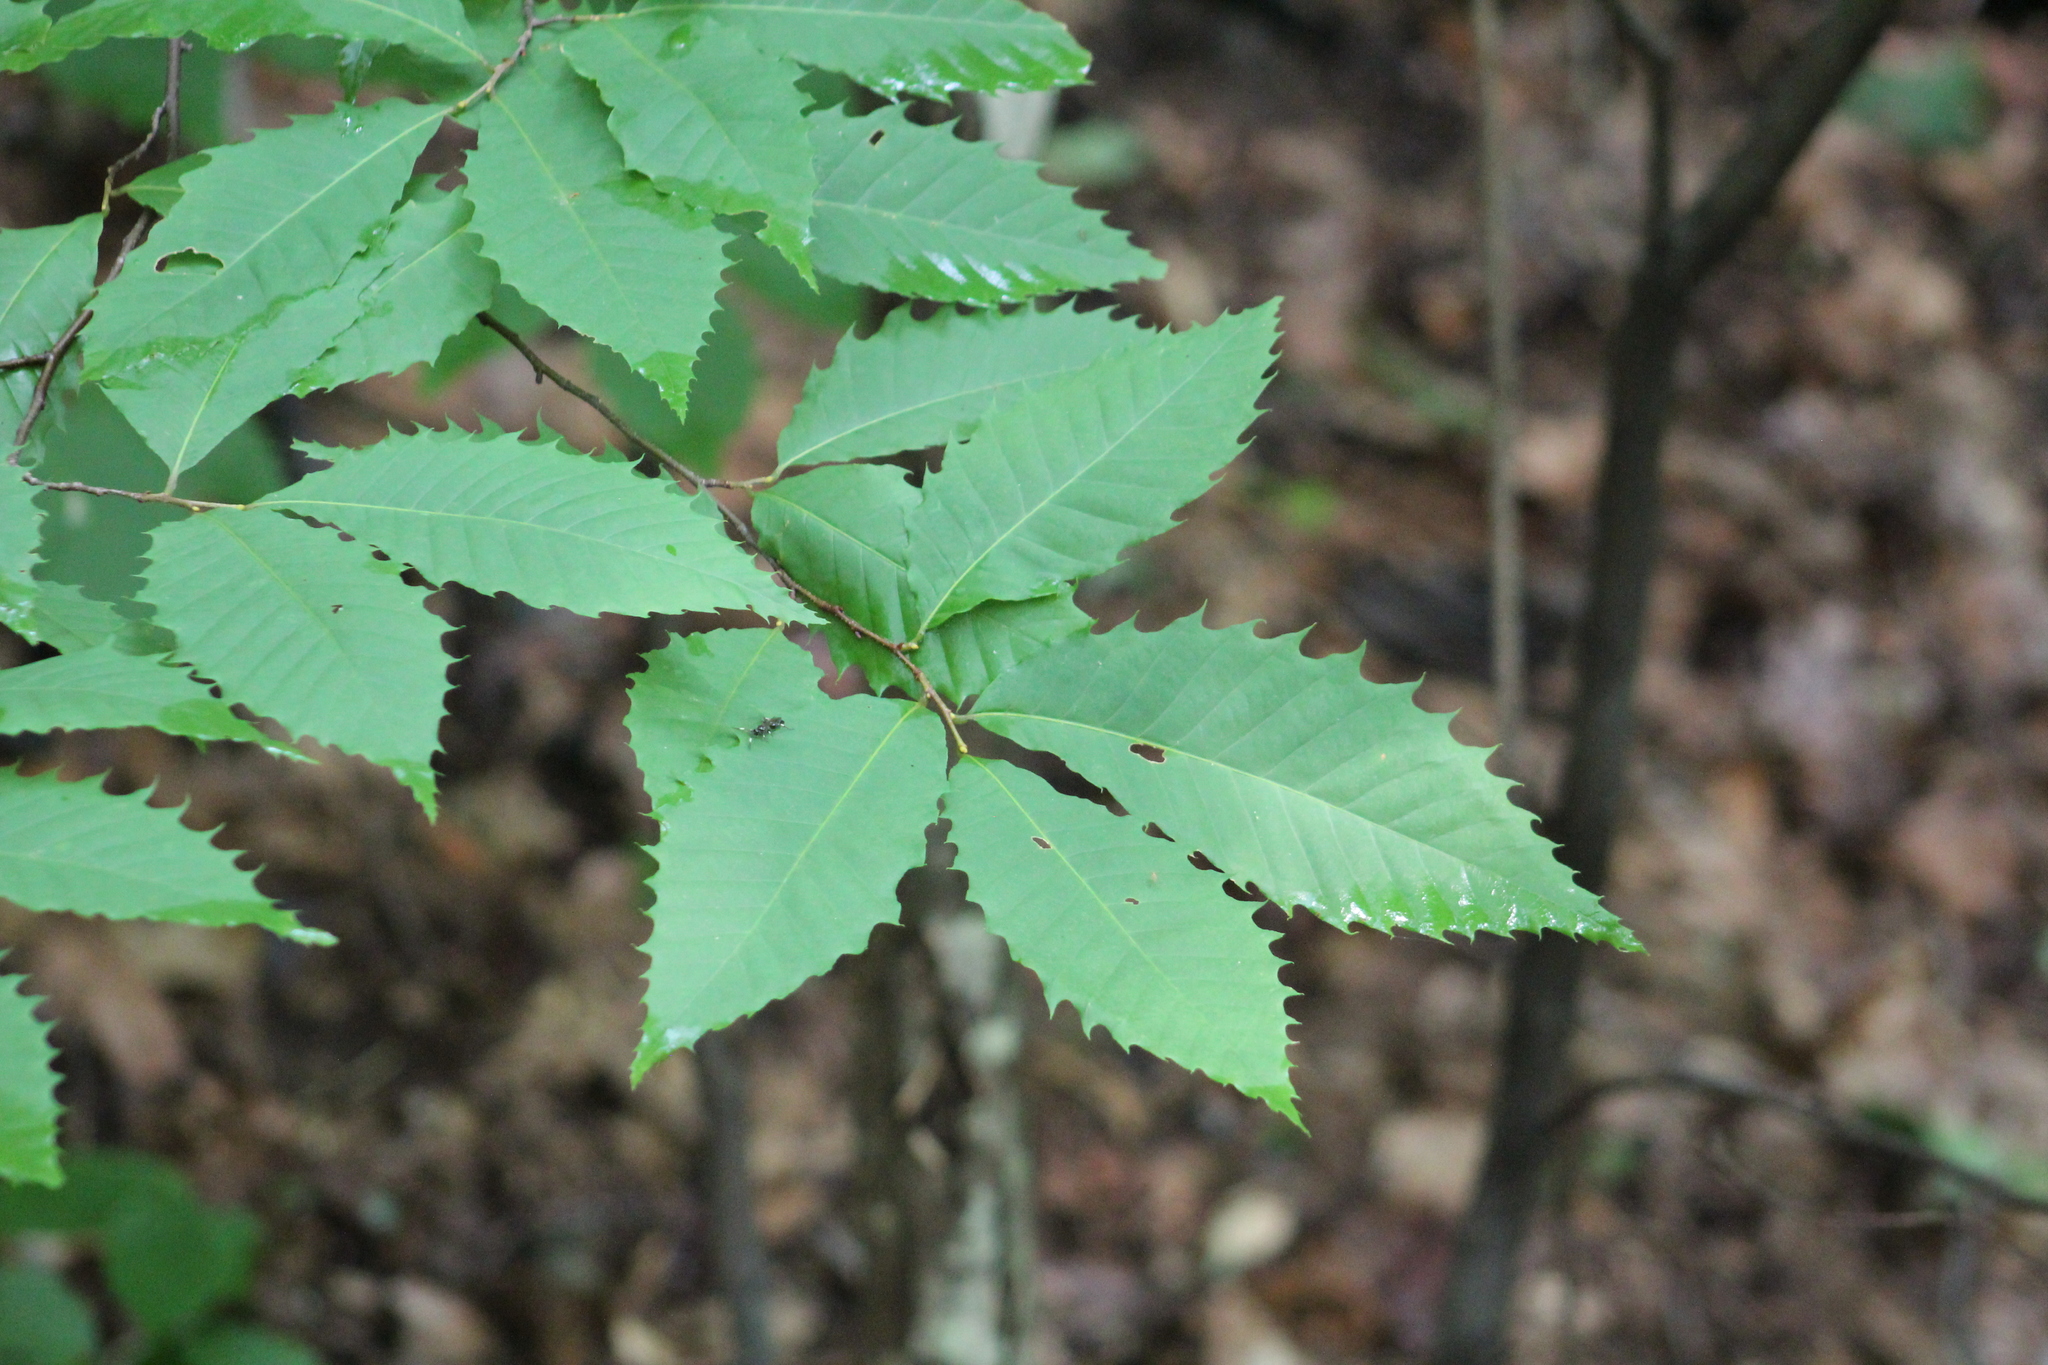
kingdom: Plantae
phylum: Tracheophyta
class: Magnoliopsida
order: Fagales
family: Fagaceae
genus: Castanea
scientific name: Castanea dentata
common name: American chestnut
